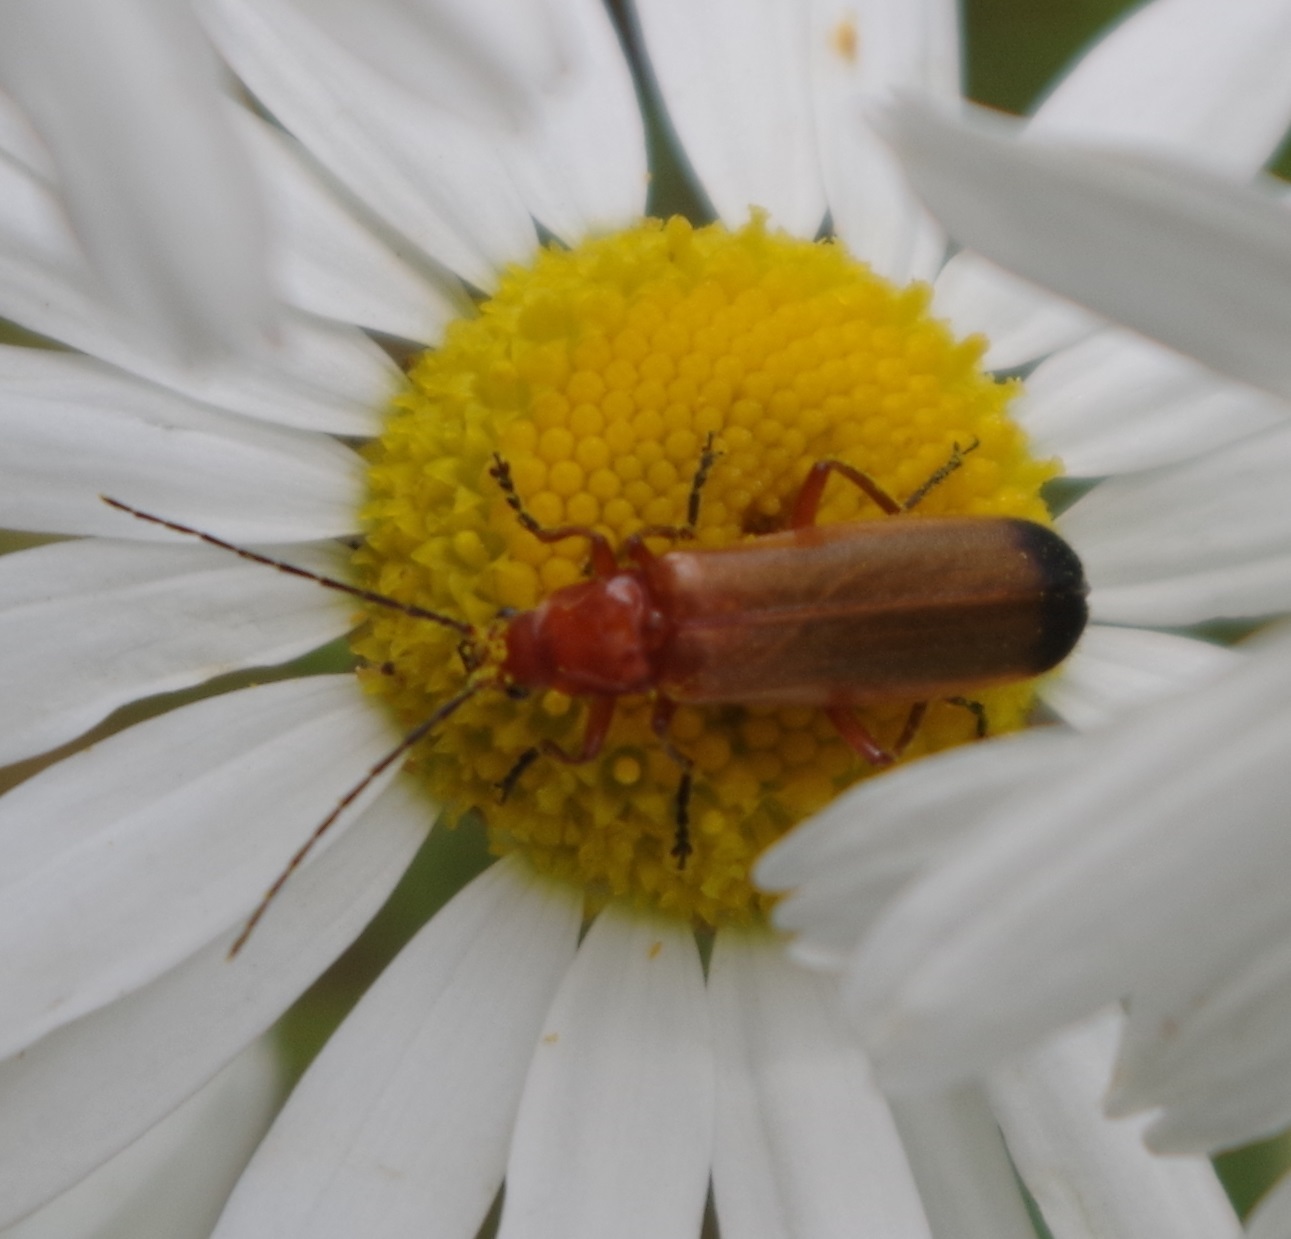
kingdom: Animalia
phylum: Arthropoda
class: Insecta
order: Coleoptera
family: Cantharidae
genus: Rhagonycha
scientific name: Rhagonycha fulva
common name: Common red soldier beetle
